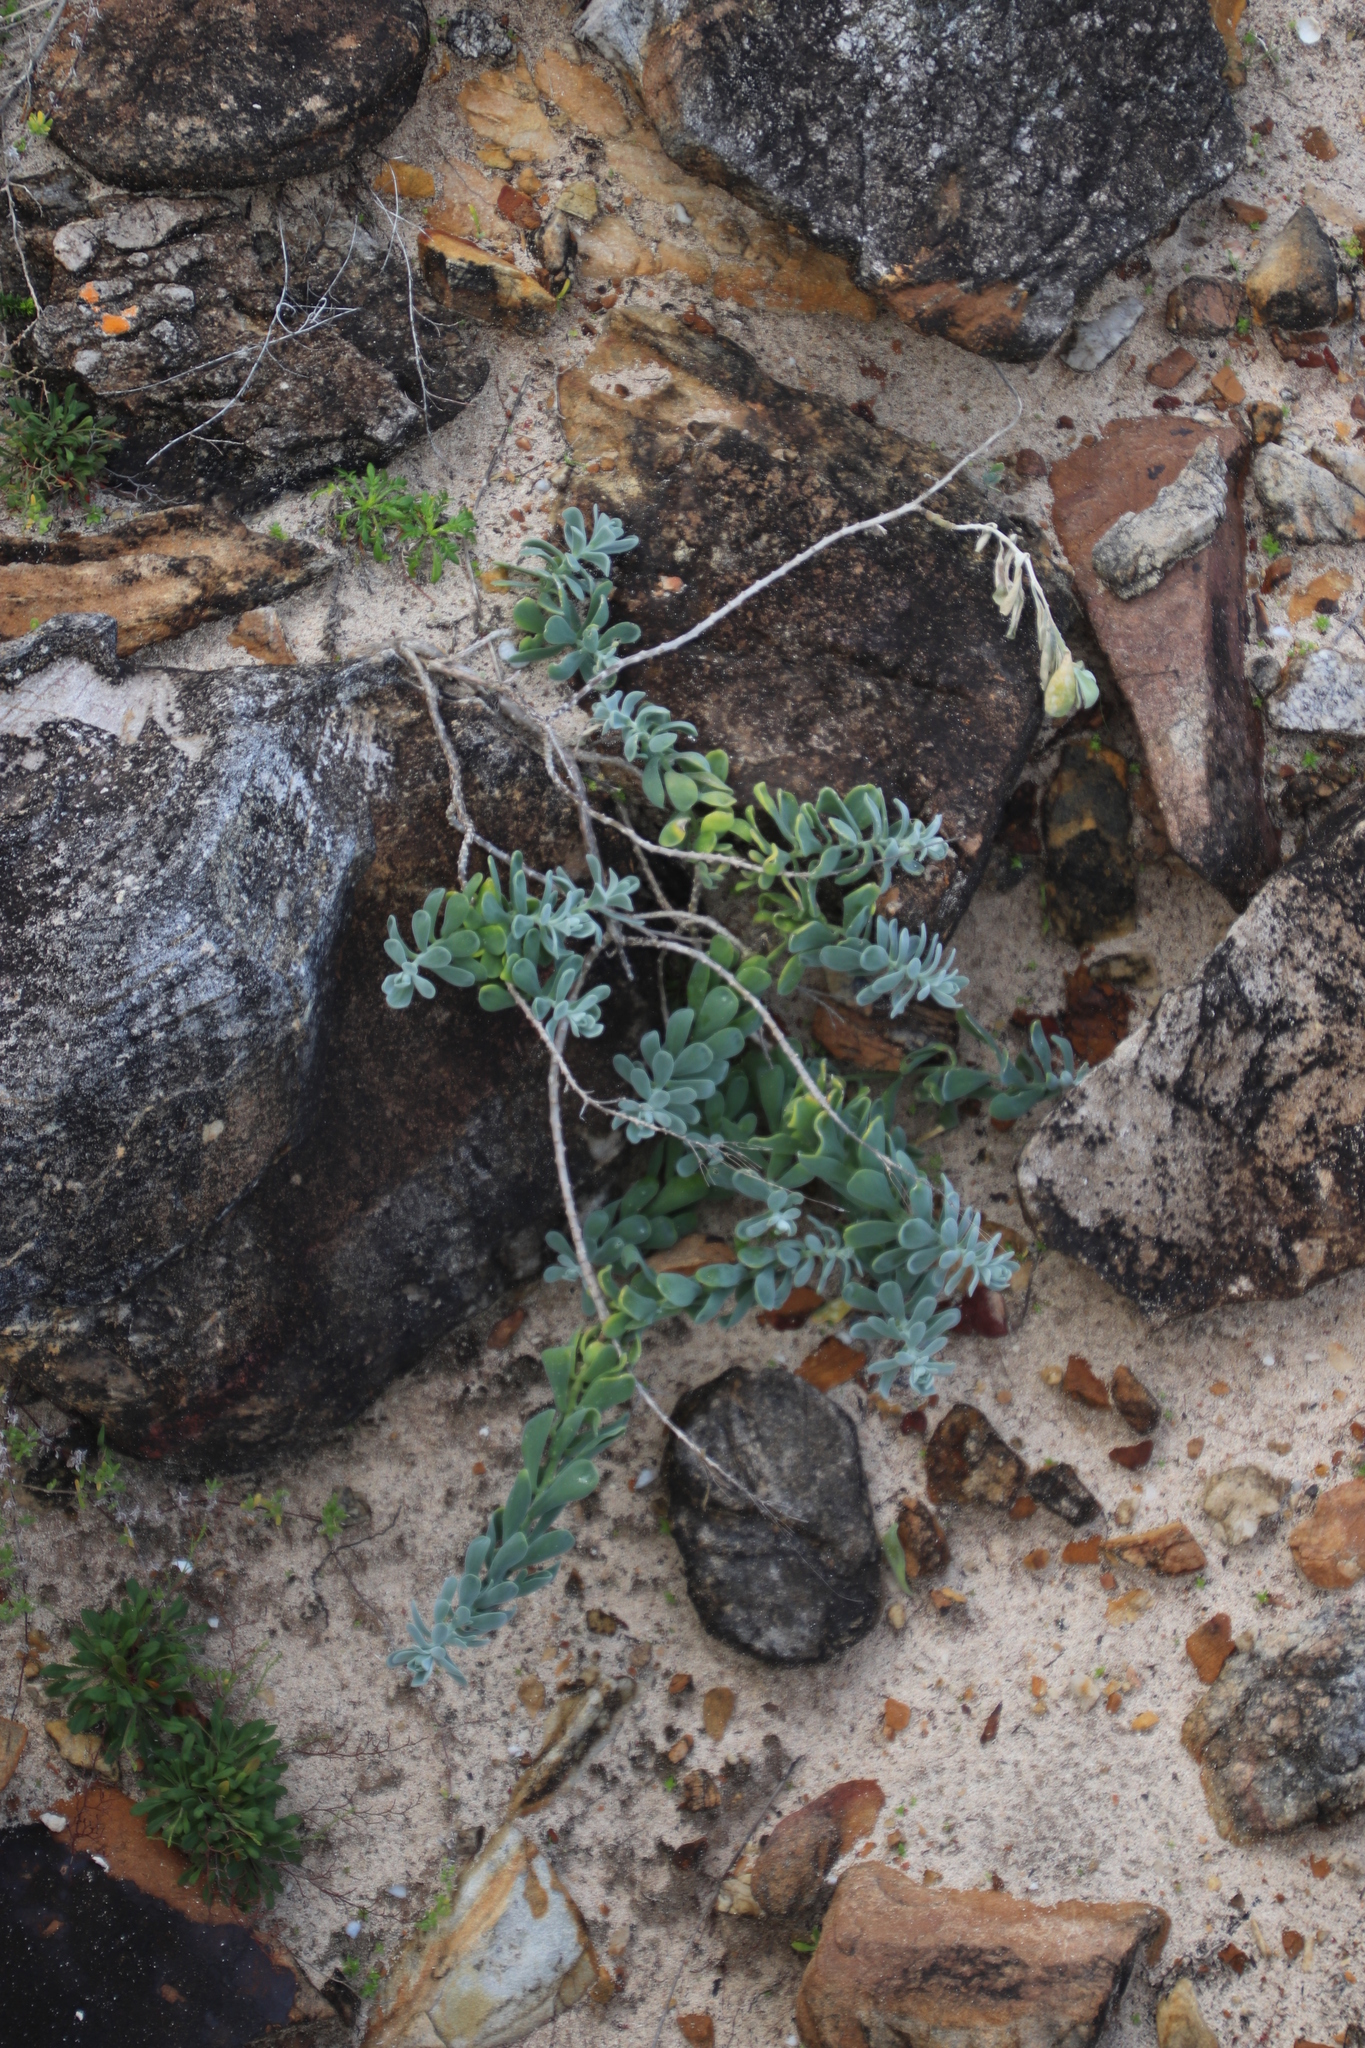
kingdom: Plantae
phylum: Tracheophyta
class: Magnoliopsida
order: Brassicales
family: Brassicaceae
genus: Heliophila
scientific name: Heliophila cinerea
